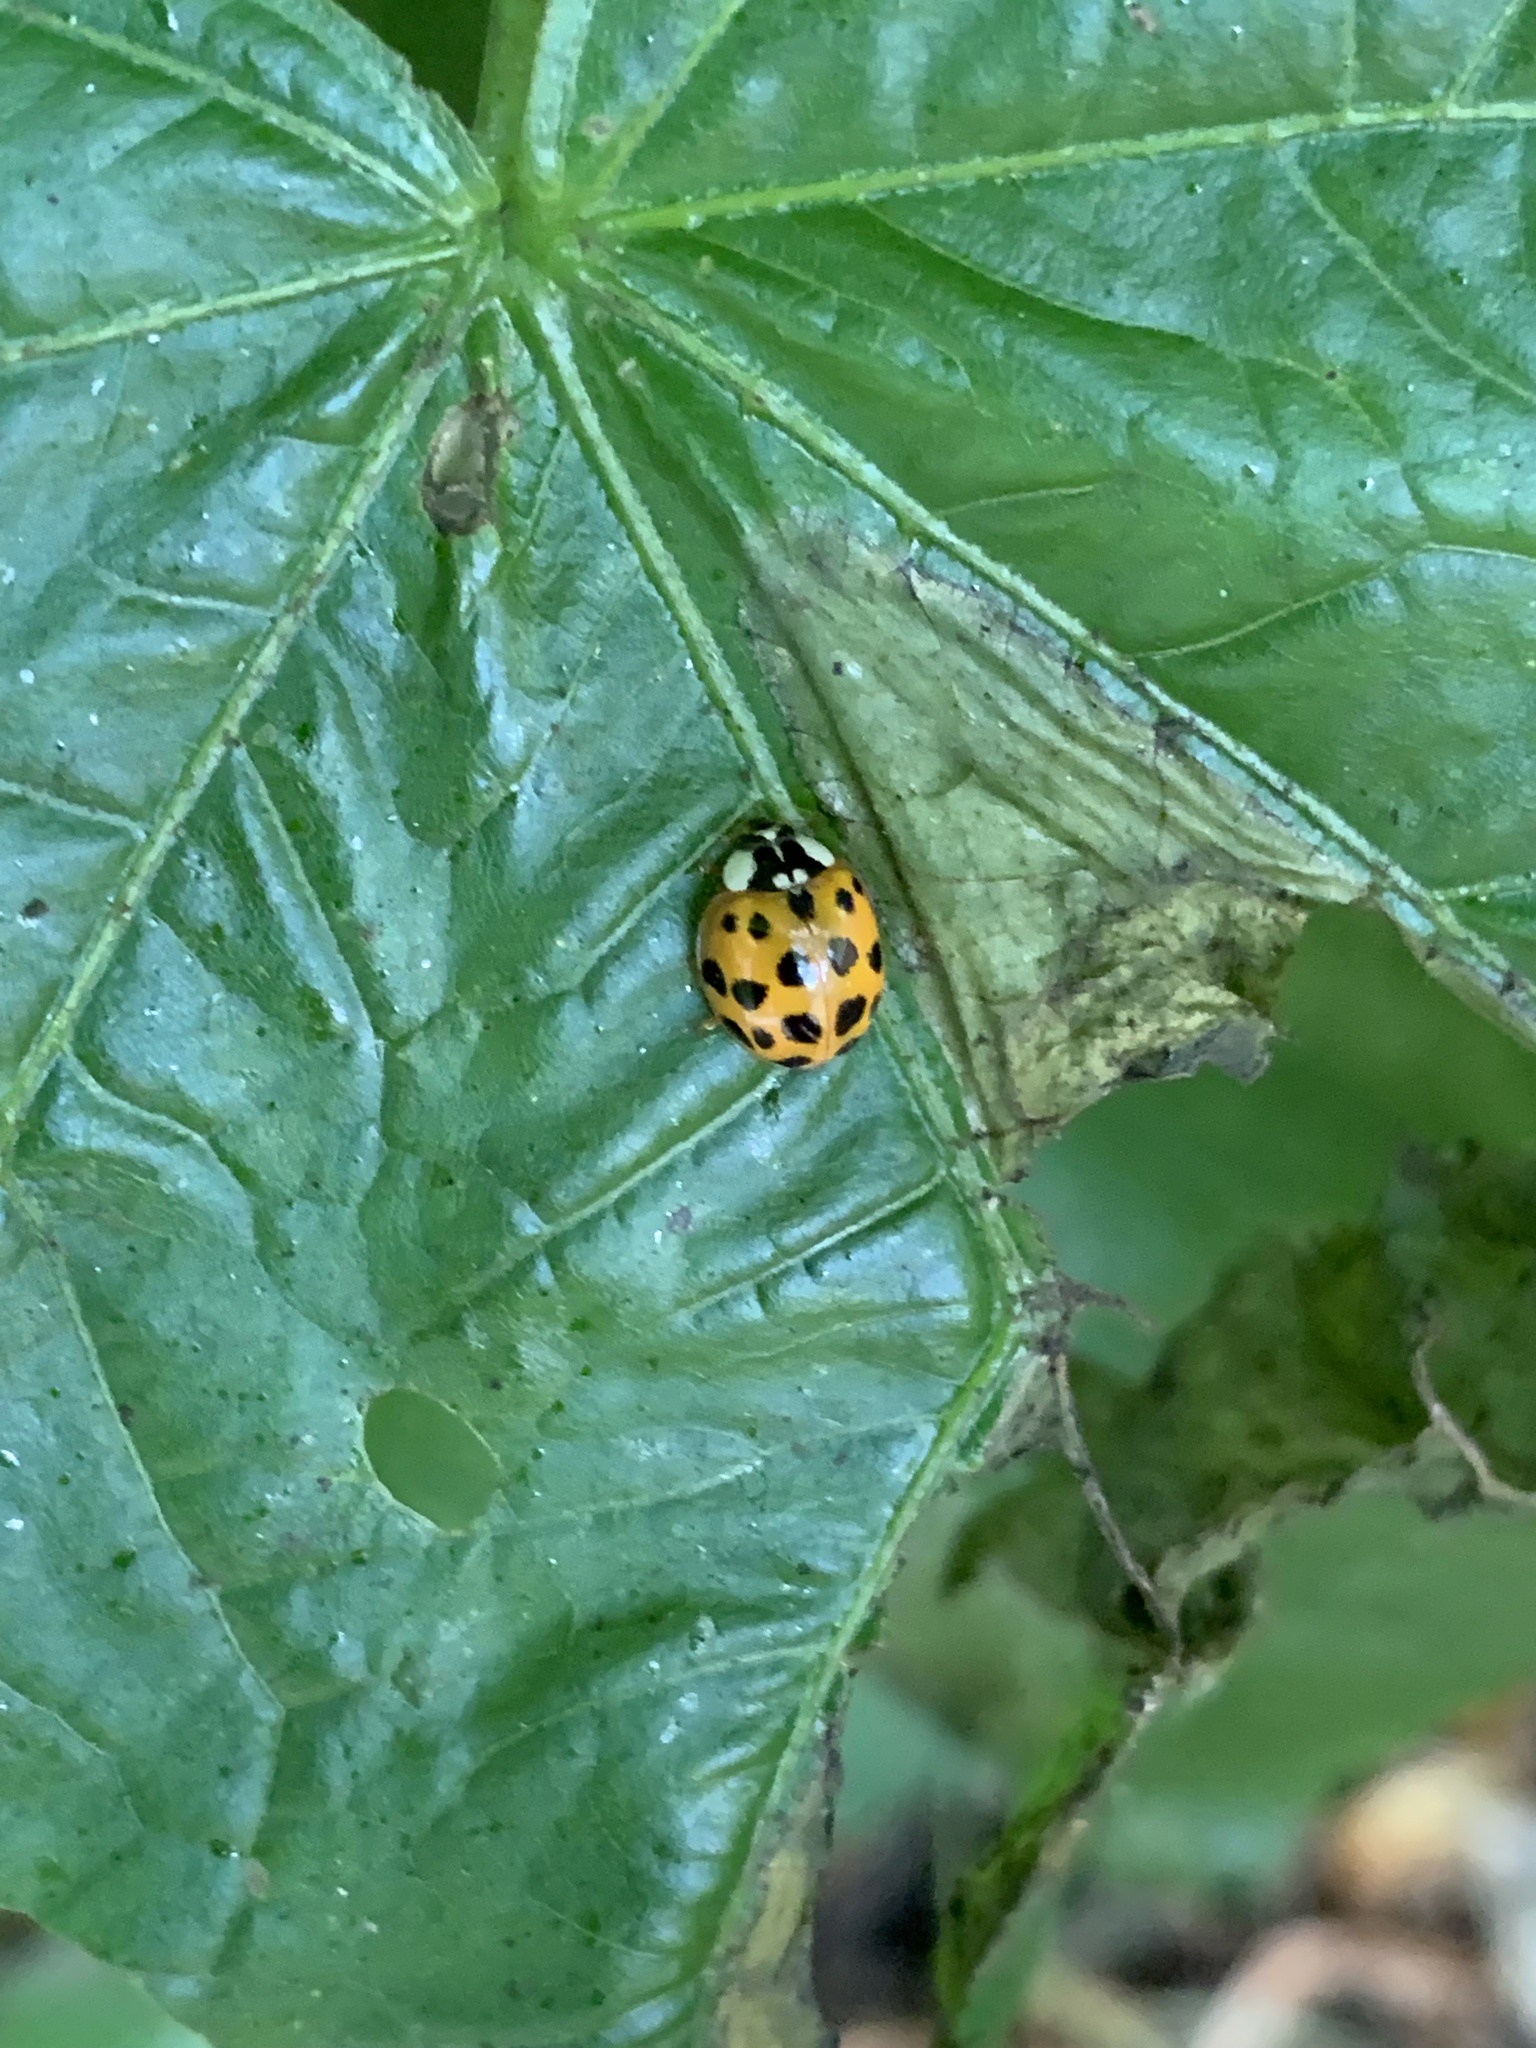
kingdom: Animalia
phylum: Arthropoda
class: Insecta
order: Coleoptera
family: Coccinellidae
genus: Harmonia
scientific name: Harmonia axyridis
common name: Harlequin ladybird
